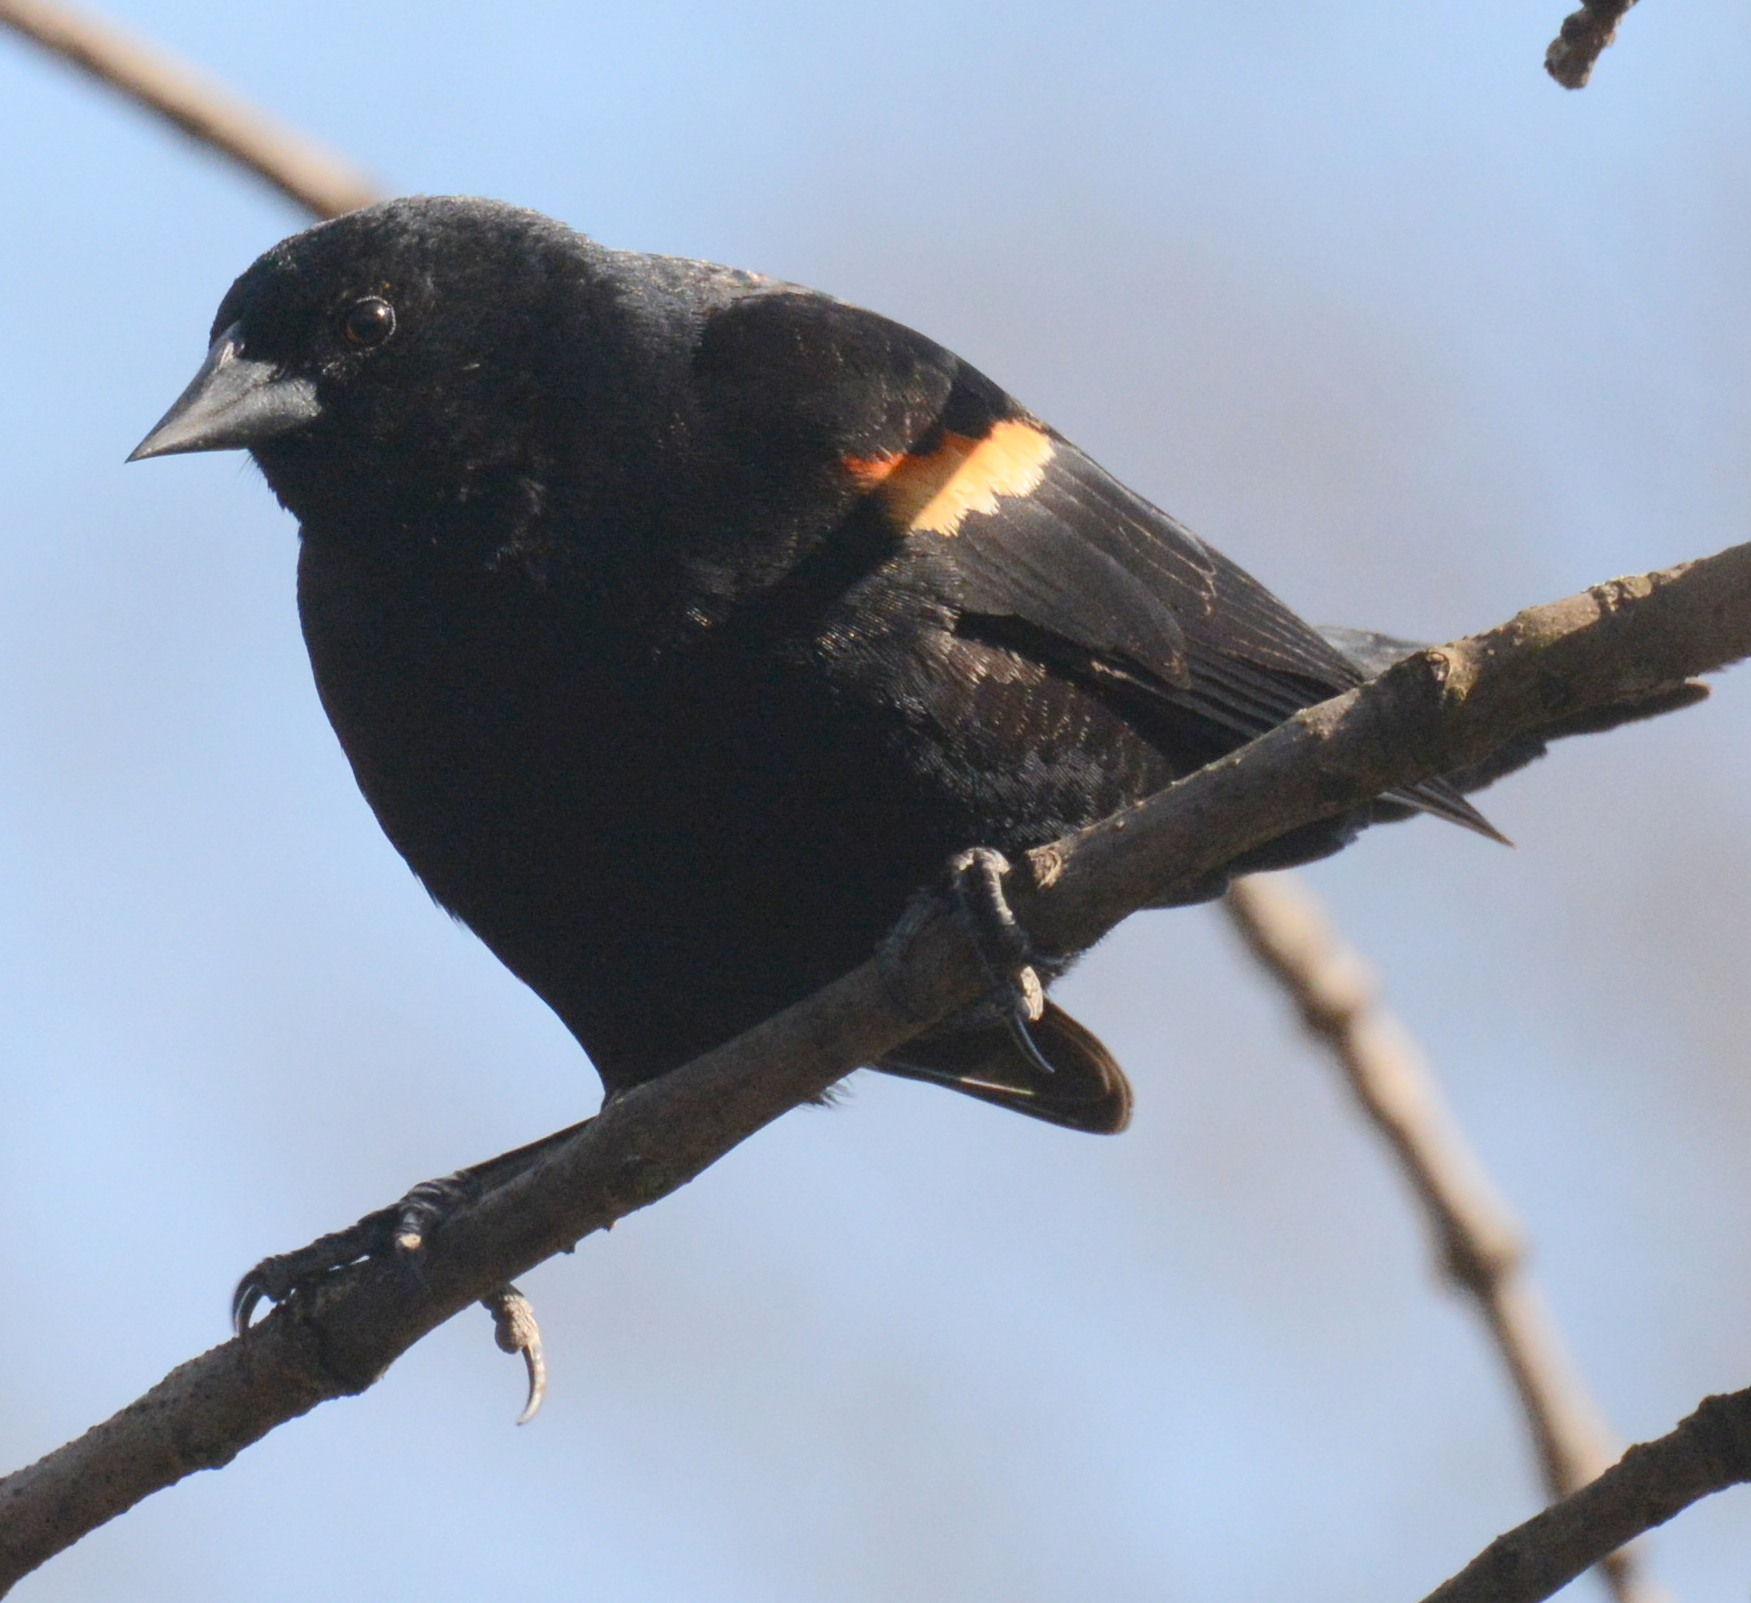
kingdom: Animalia
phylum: Chordata
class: Aves
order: Passeriformes
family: Icteridae
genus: Agelaius
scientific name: Agelaius phoeniceus
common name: Red-winged blackbird
